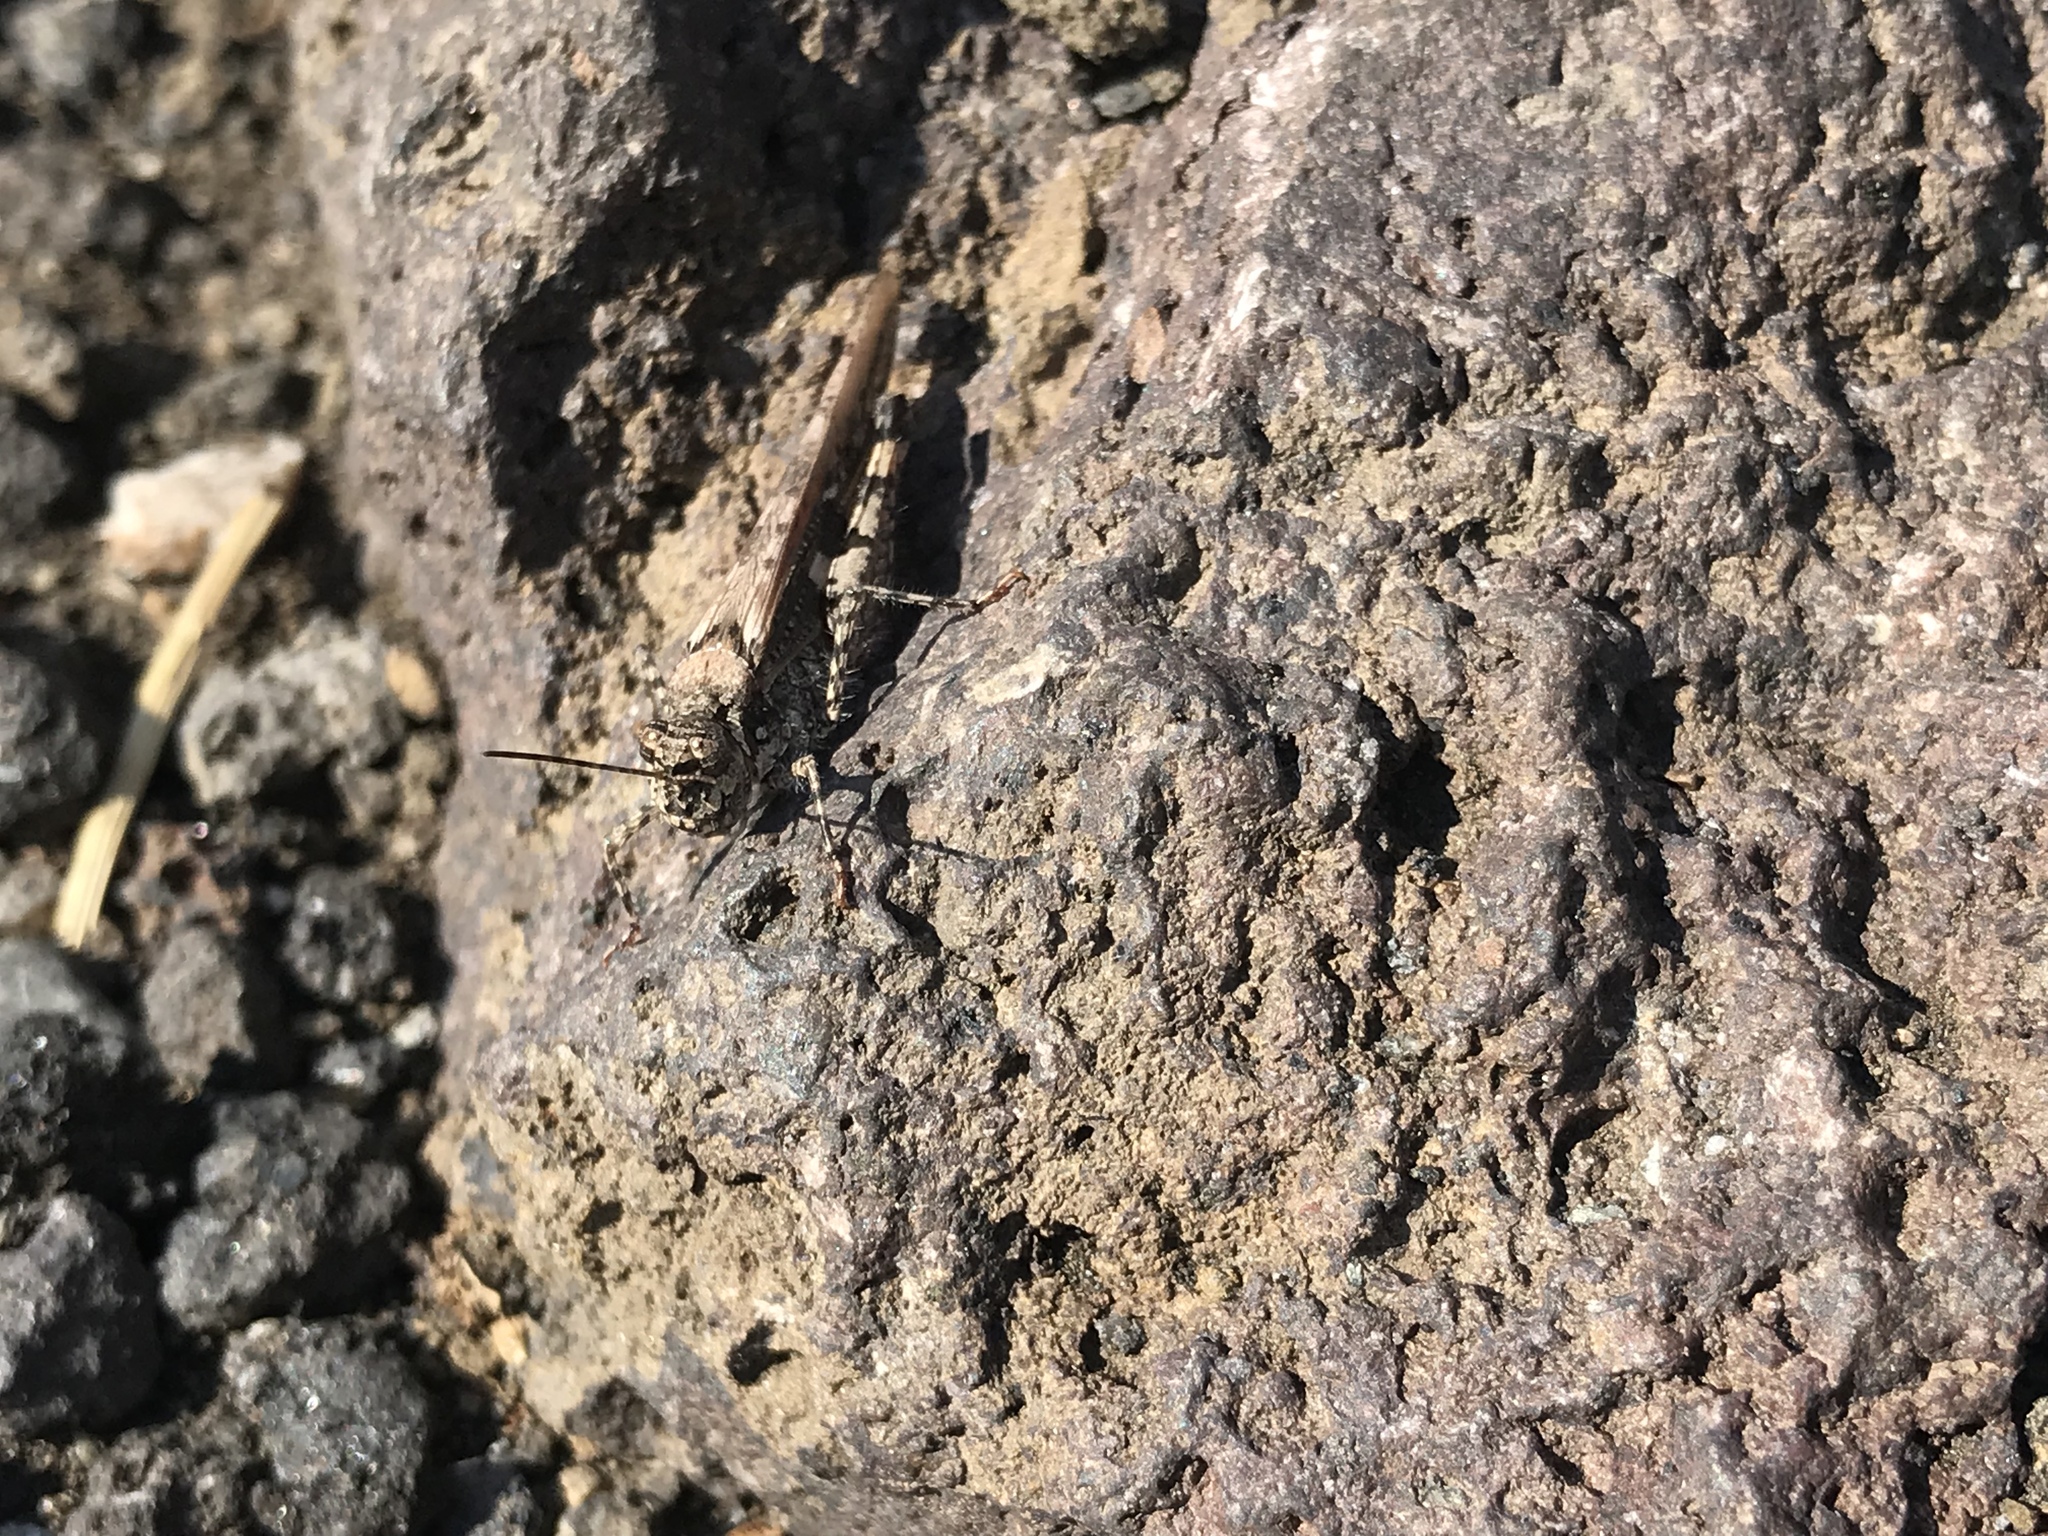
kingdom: Animalia
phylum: Arthropoda
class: Insecta
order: Orthoptera
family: Acrididae
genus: Acrotylus
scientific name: Acrotylus patruelis
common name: Slender burrowing grasshopper
